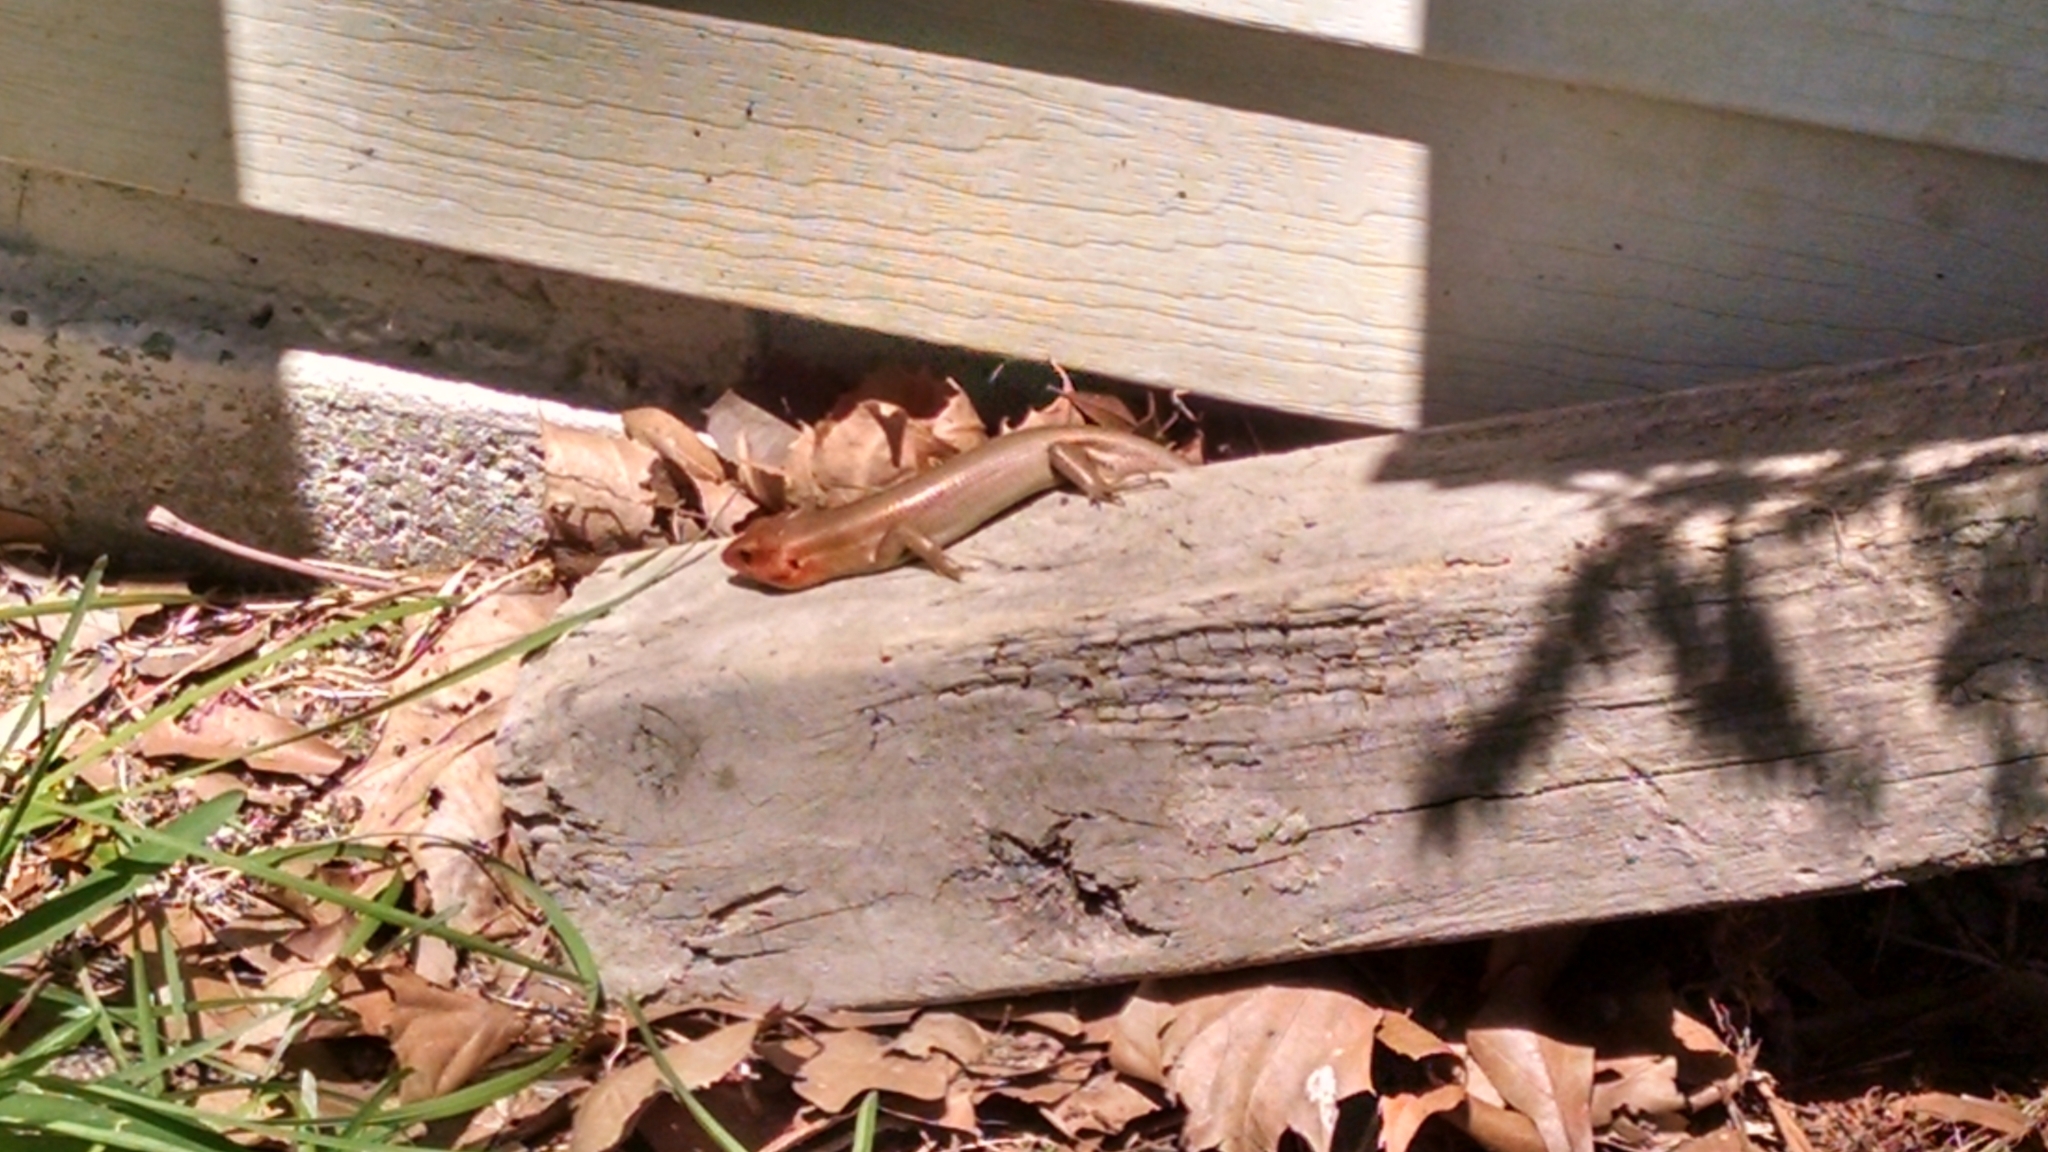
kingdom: Animalia
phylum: Chordata
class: Squamata
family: Scincidae
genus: Plestiodon
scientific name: Plestiodon laticeps
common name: Broadhead skink
